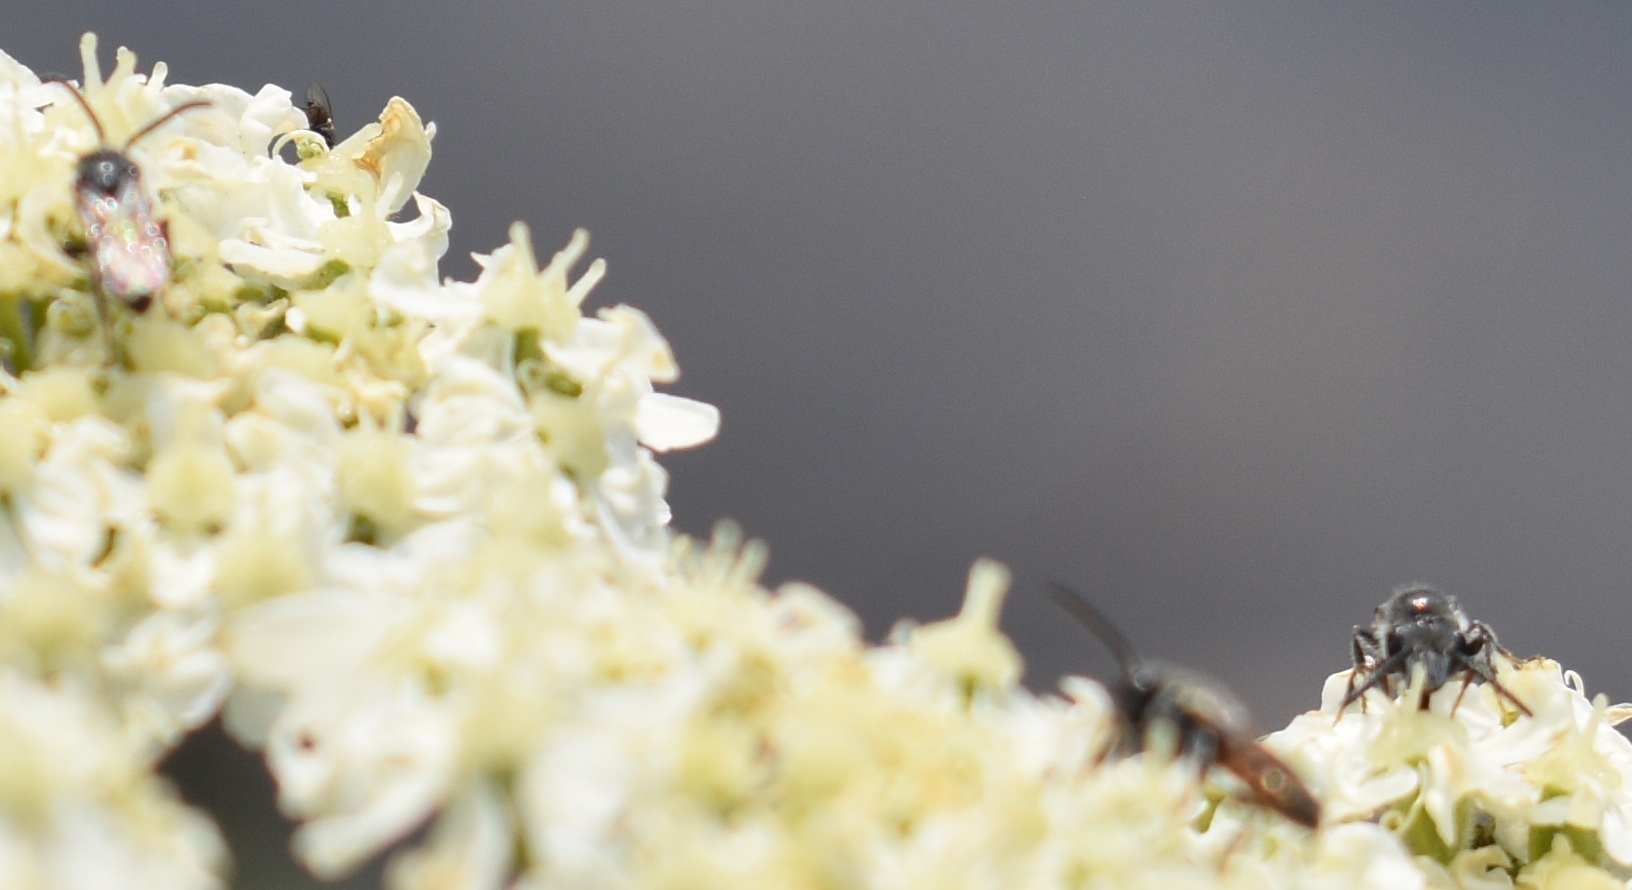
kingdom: Animalia
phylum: Arthropoda
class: Insecta
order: Hymenoptera
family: Halictidae
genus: Sphecodes
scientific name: Sphecodes
